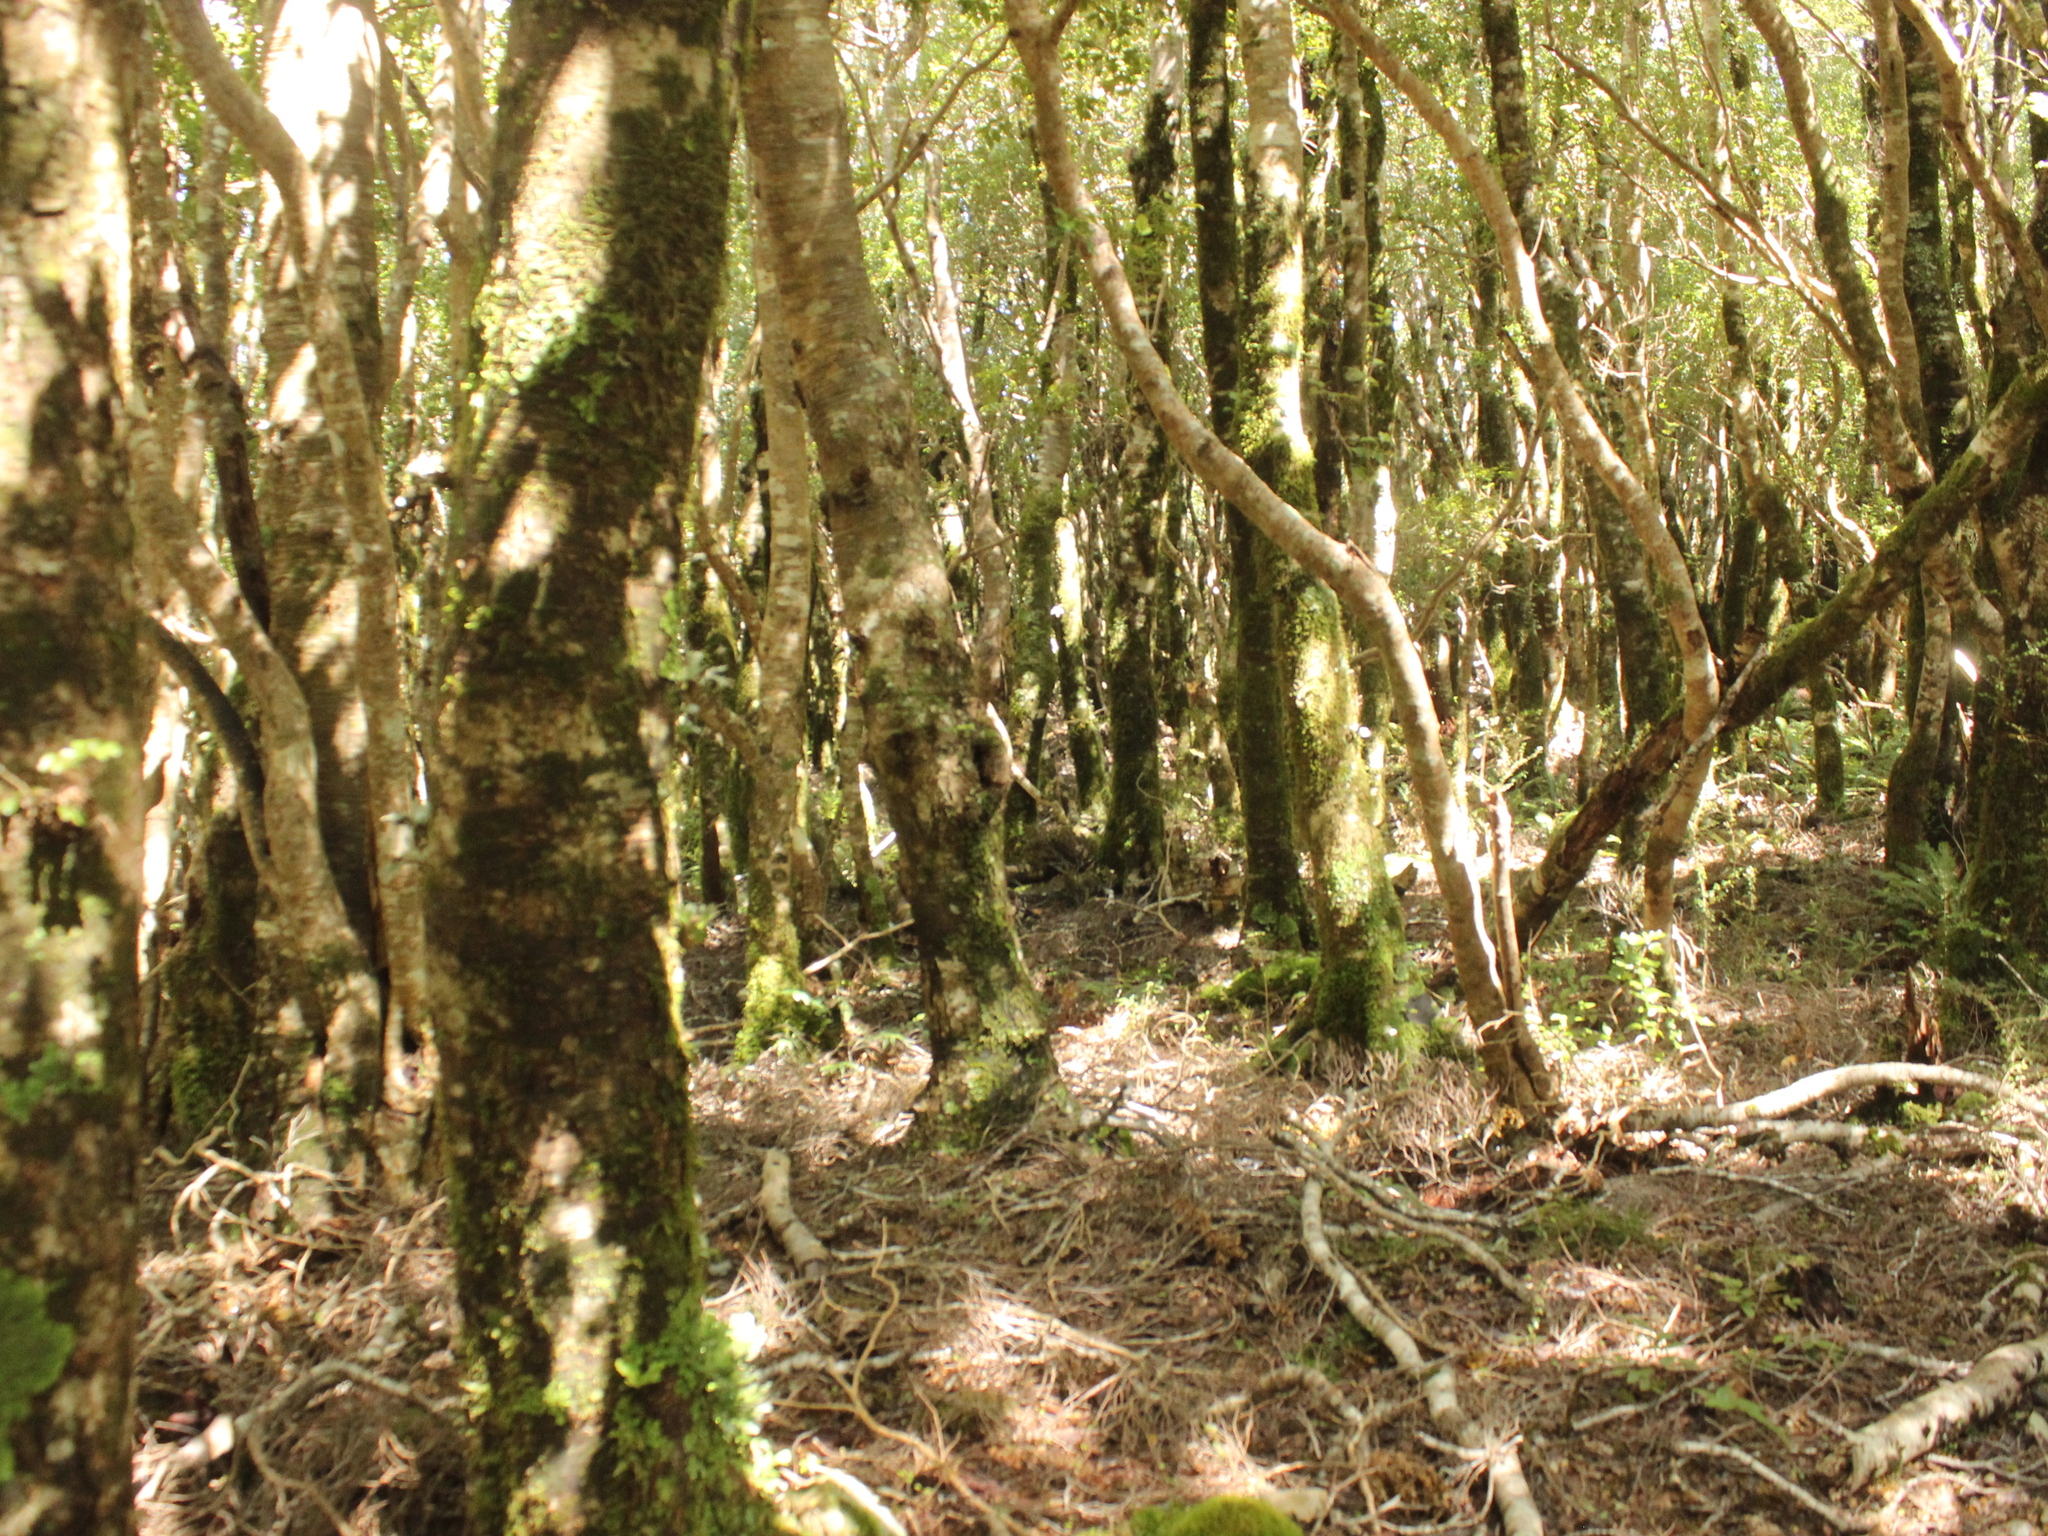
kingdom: Plantae
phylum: Tracheophyta
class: Magnoliopsida
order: Oxalidales
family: Cunoniaceae
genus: Pterophylla
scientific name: Pterophylla racemosa
